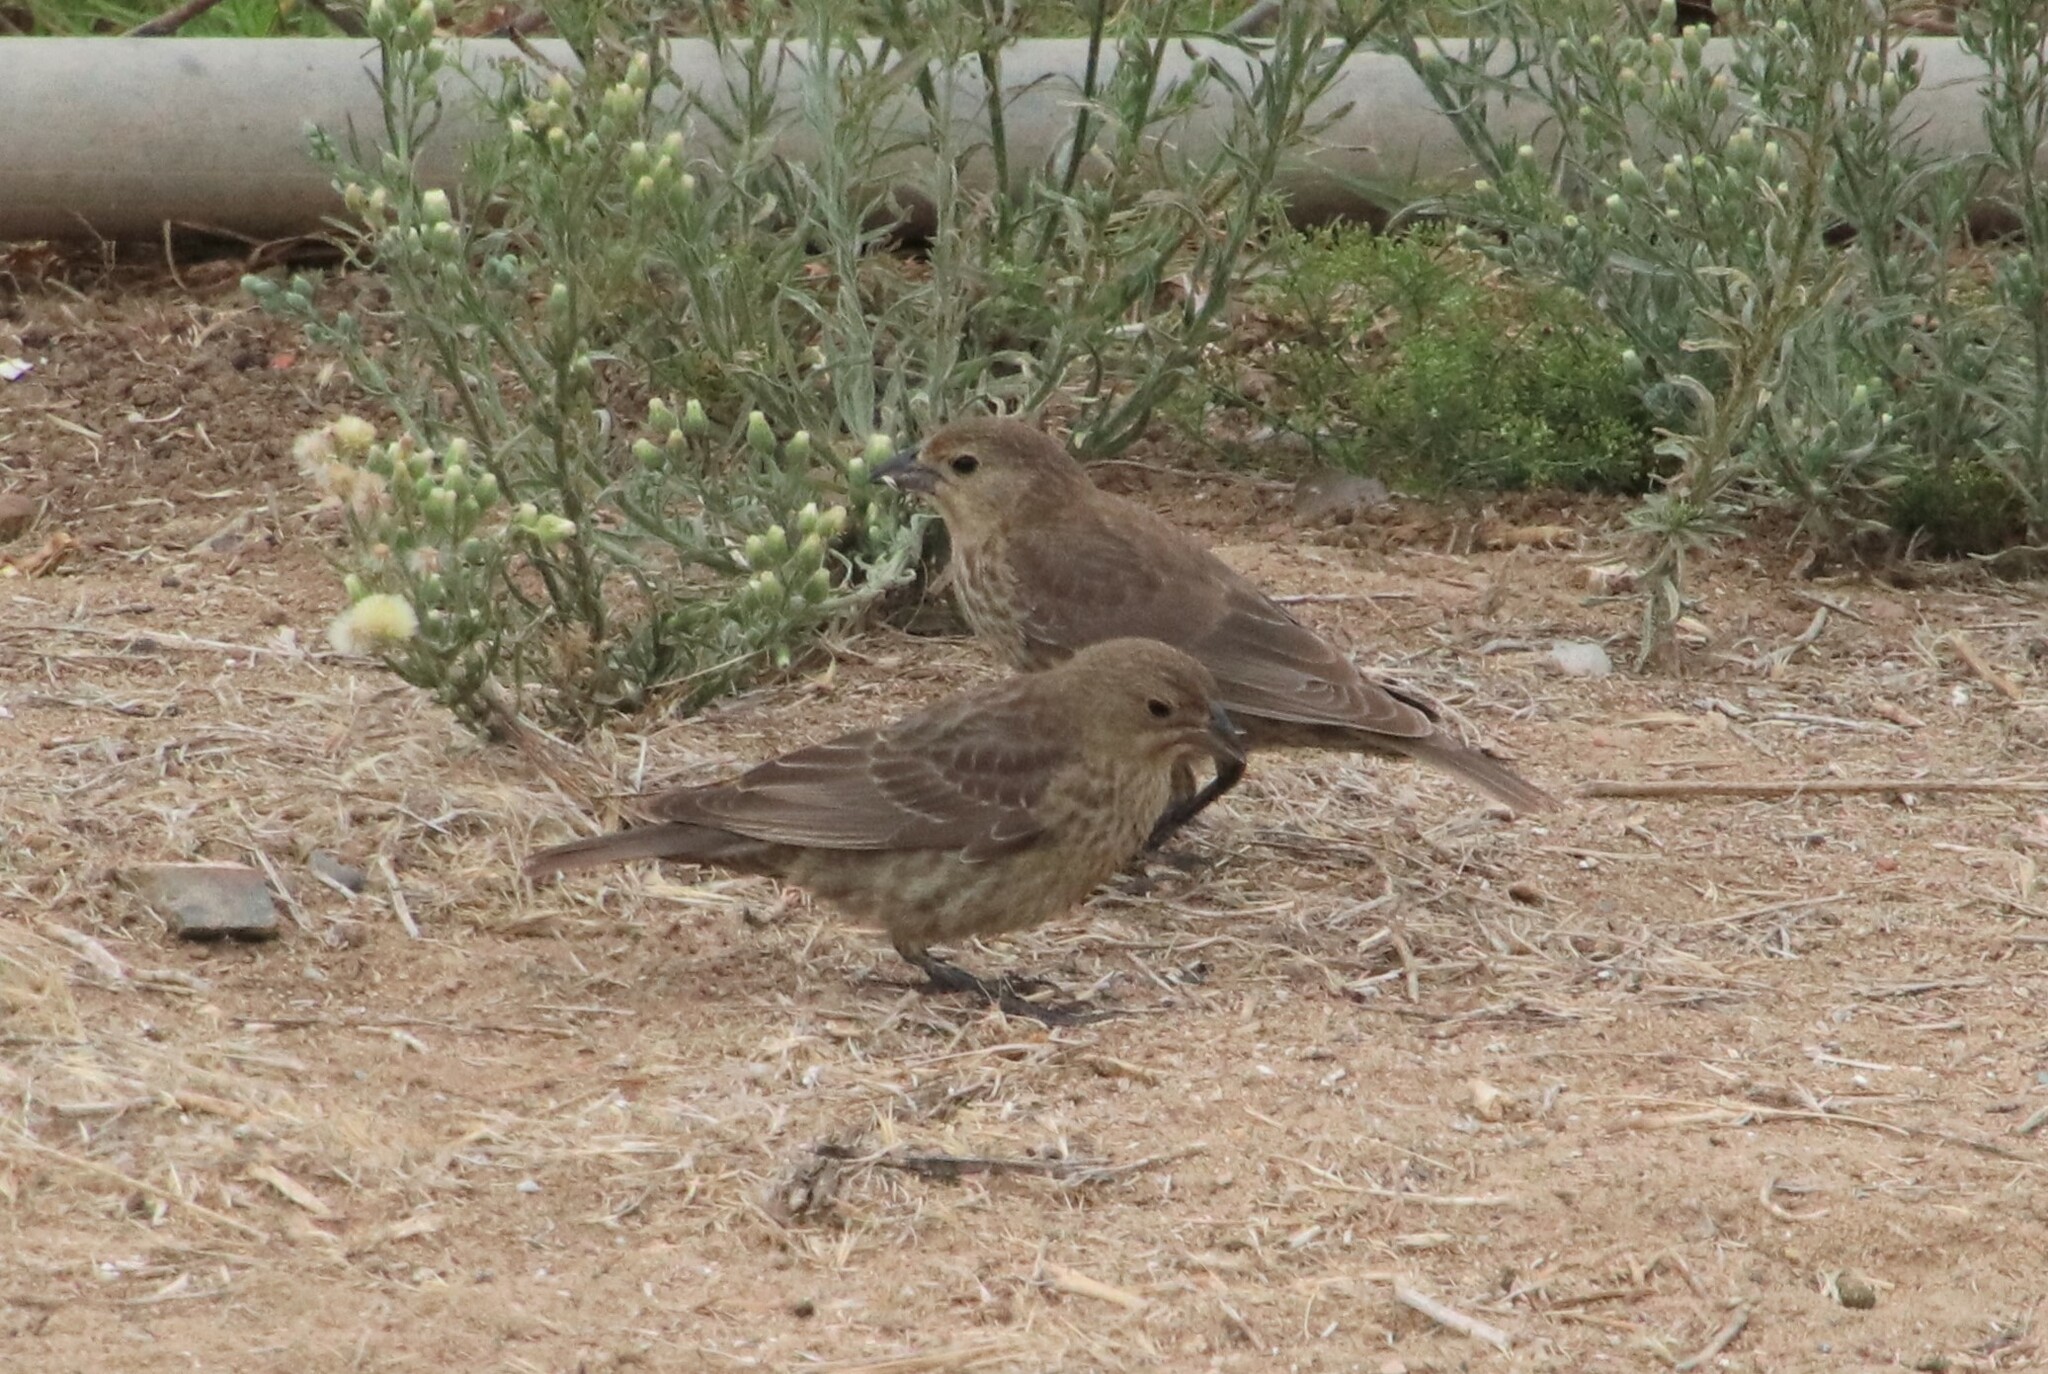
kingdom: Animalia
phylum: Chordata
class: Aves
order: Passeriformes
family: Icteridae
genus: Molothrus
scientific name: Molothrus ater
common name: Brown-headed cowbird
